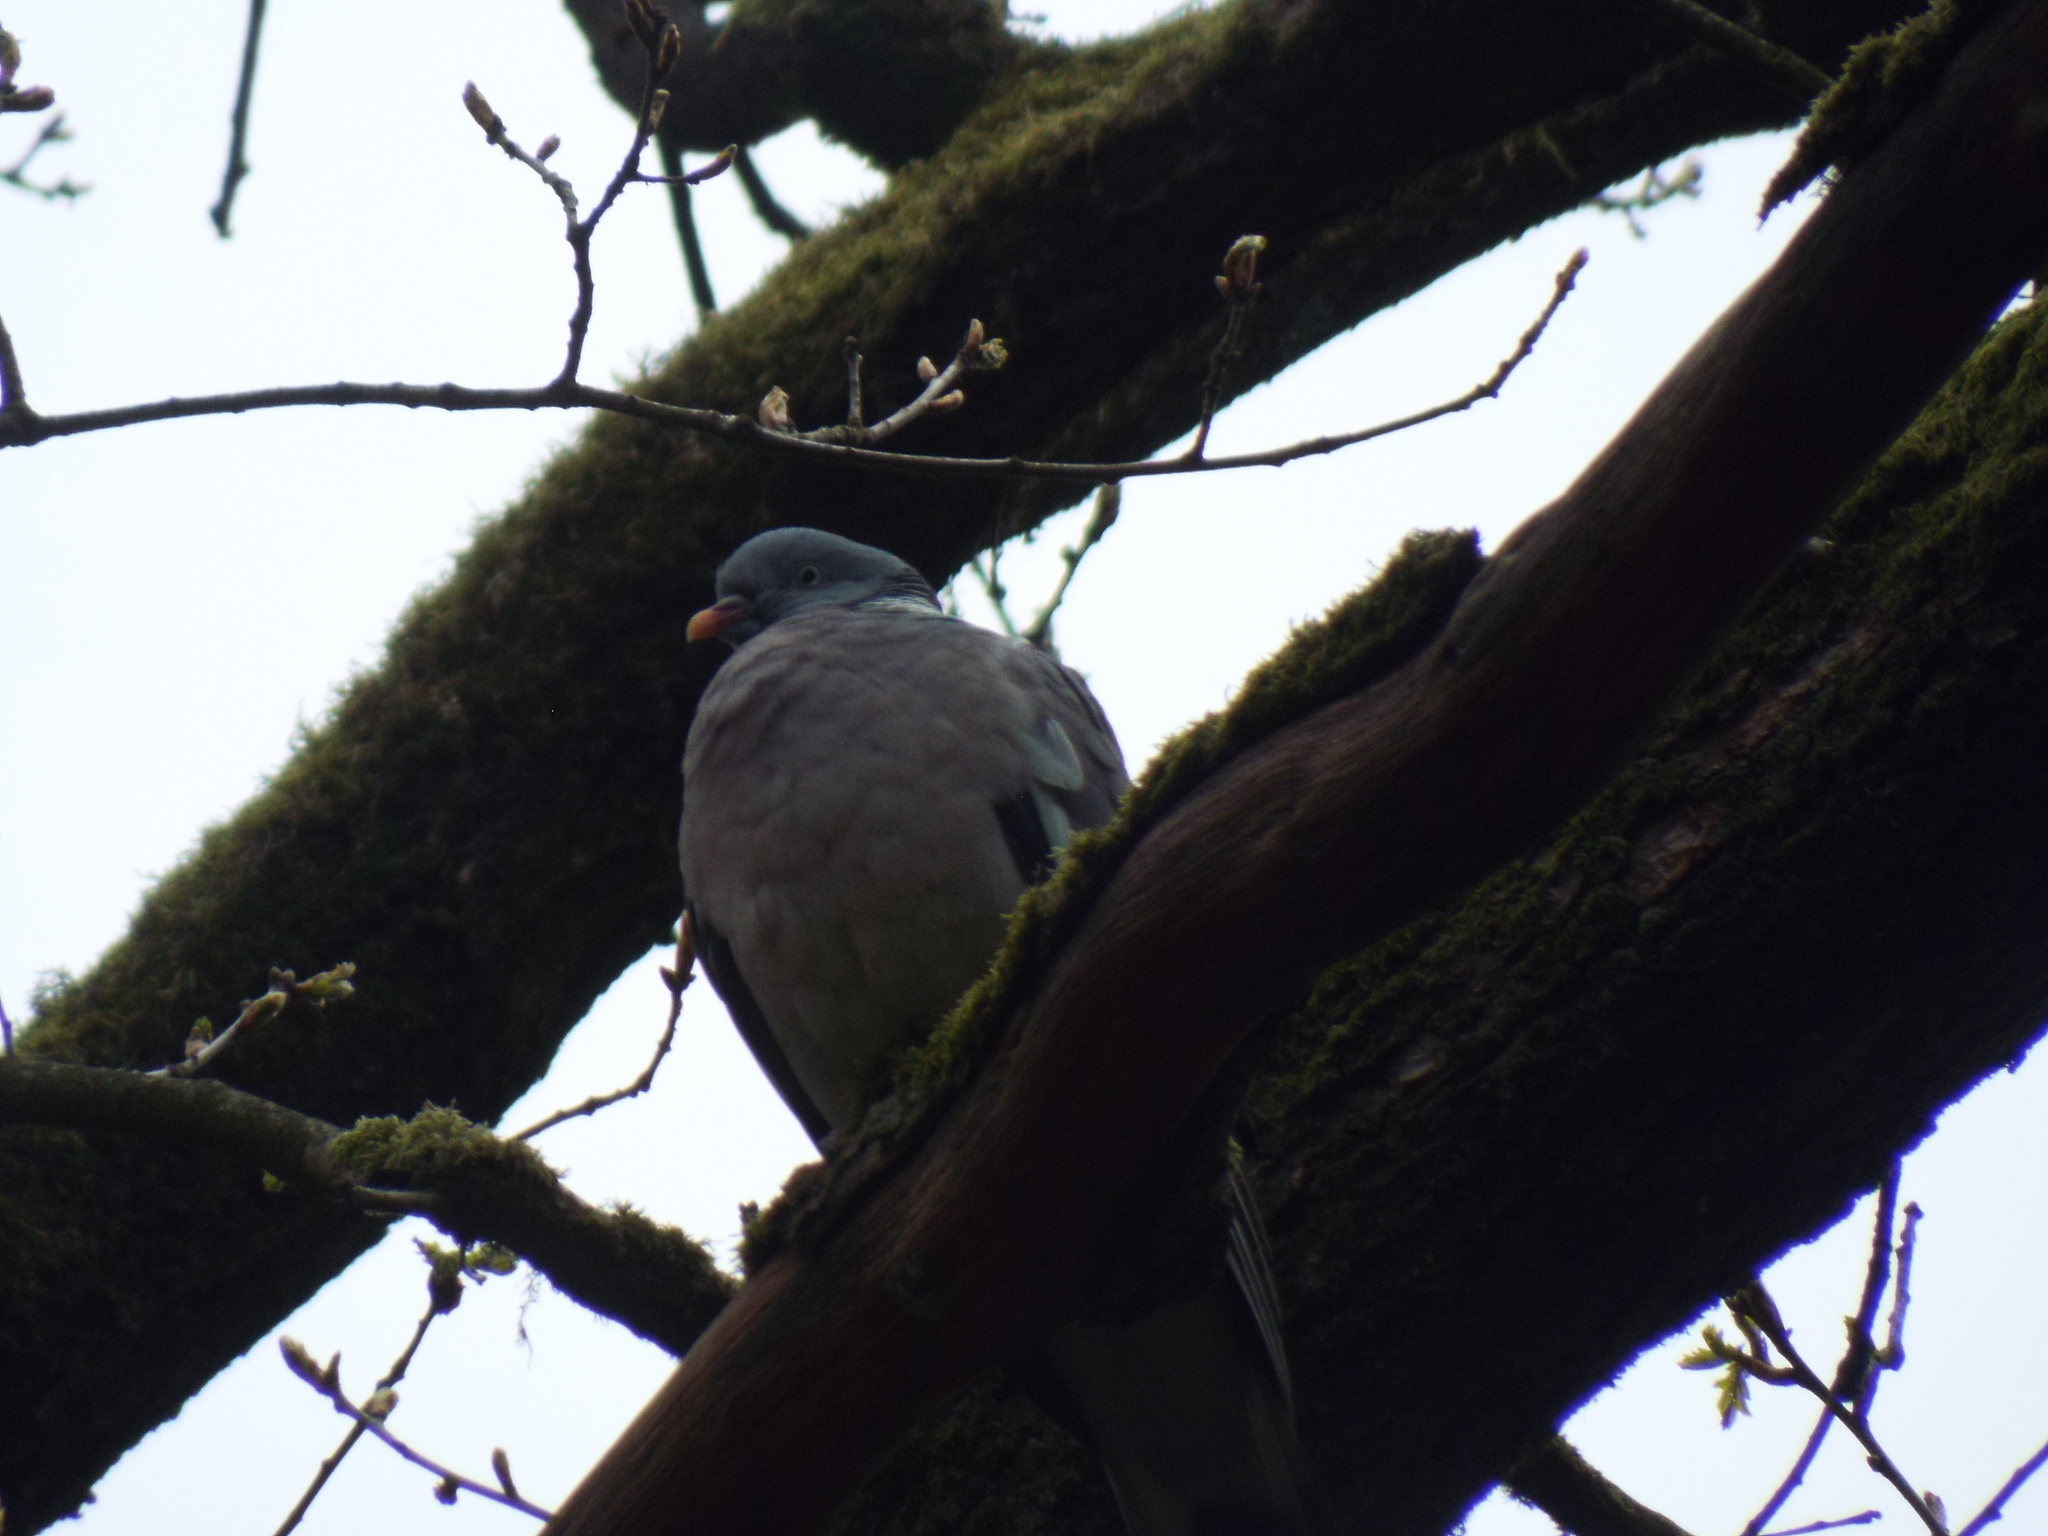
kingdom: Animalia
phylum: Chordata
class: Aves
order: Columbiformes
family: Columbidae
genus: Columba
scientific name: Columba palumbus
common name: Common wood pigeon
